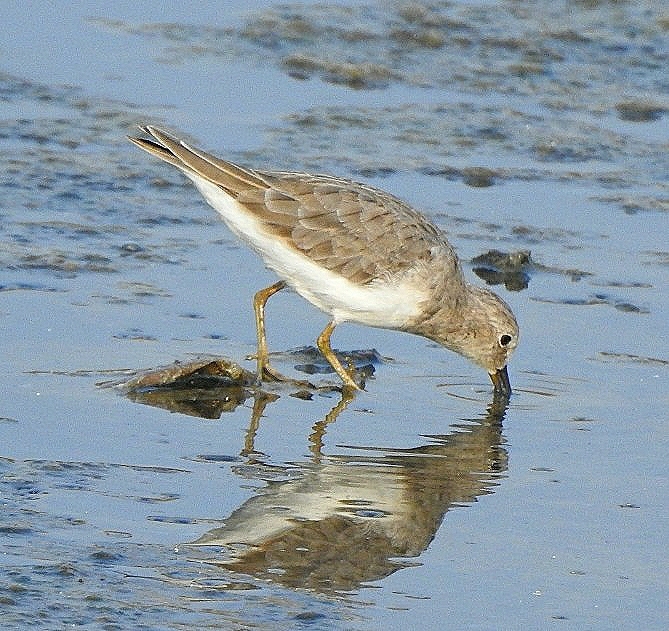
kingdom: Animalia
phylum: Chordata
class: Aves
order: Charadriiformes
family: Scolopacidae
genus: Calidris
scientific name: Calidris temminckii
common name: Temminck's stint
